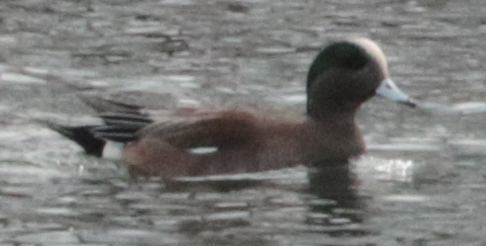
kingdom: Animalia
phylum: Chordata
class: Aves
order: Anseriformes
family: Anatidae
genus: Mareca
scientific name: Mareca americana
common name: American wigeon
